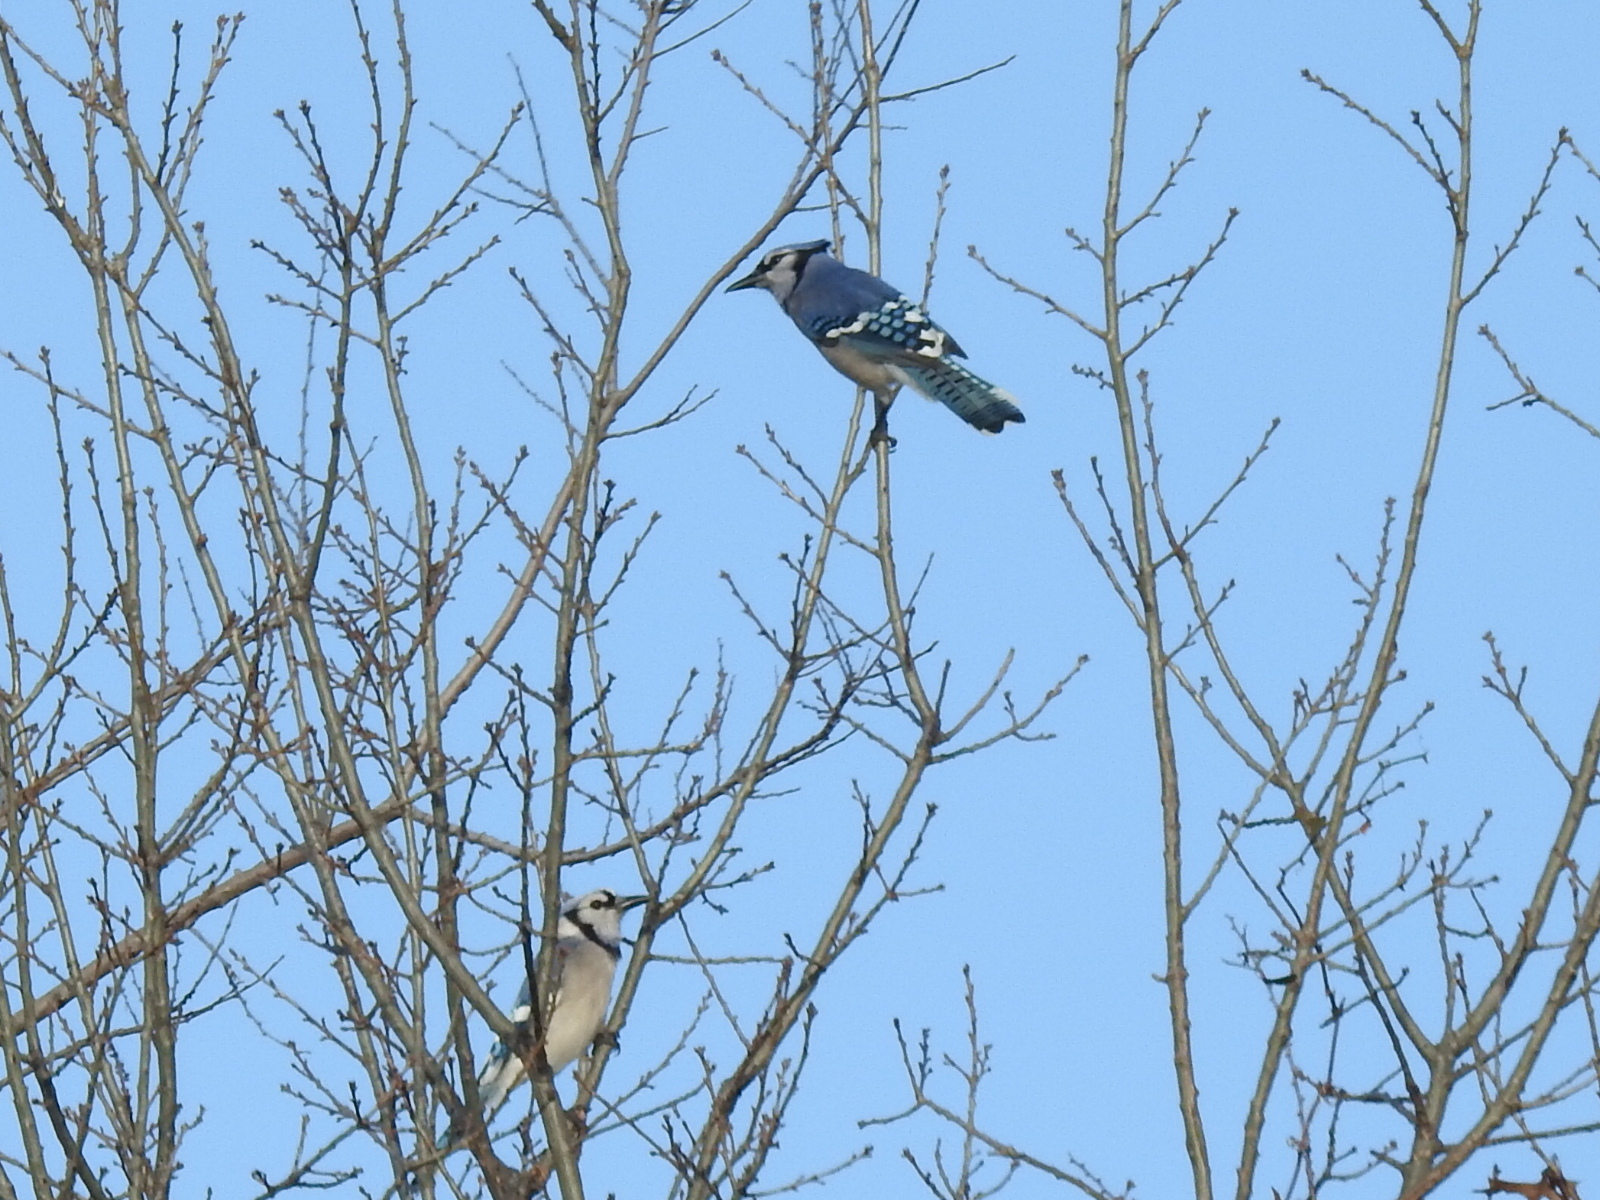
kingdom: Animalia
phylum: Chordata
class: Aves
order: Passeriformes
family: Corvidae
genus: Cyanocitta
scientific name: Cyanocitta cristata
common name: Blue jay
